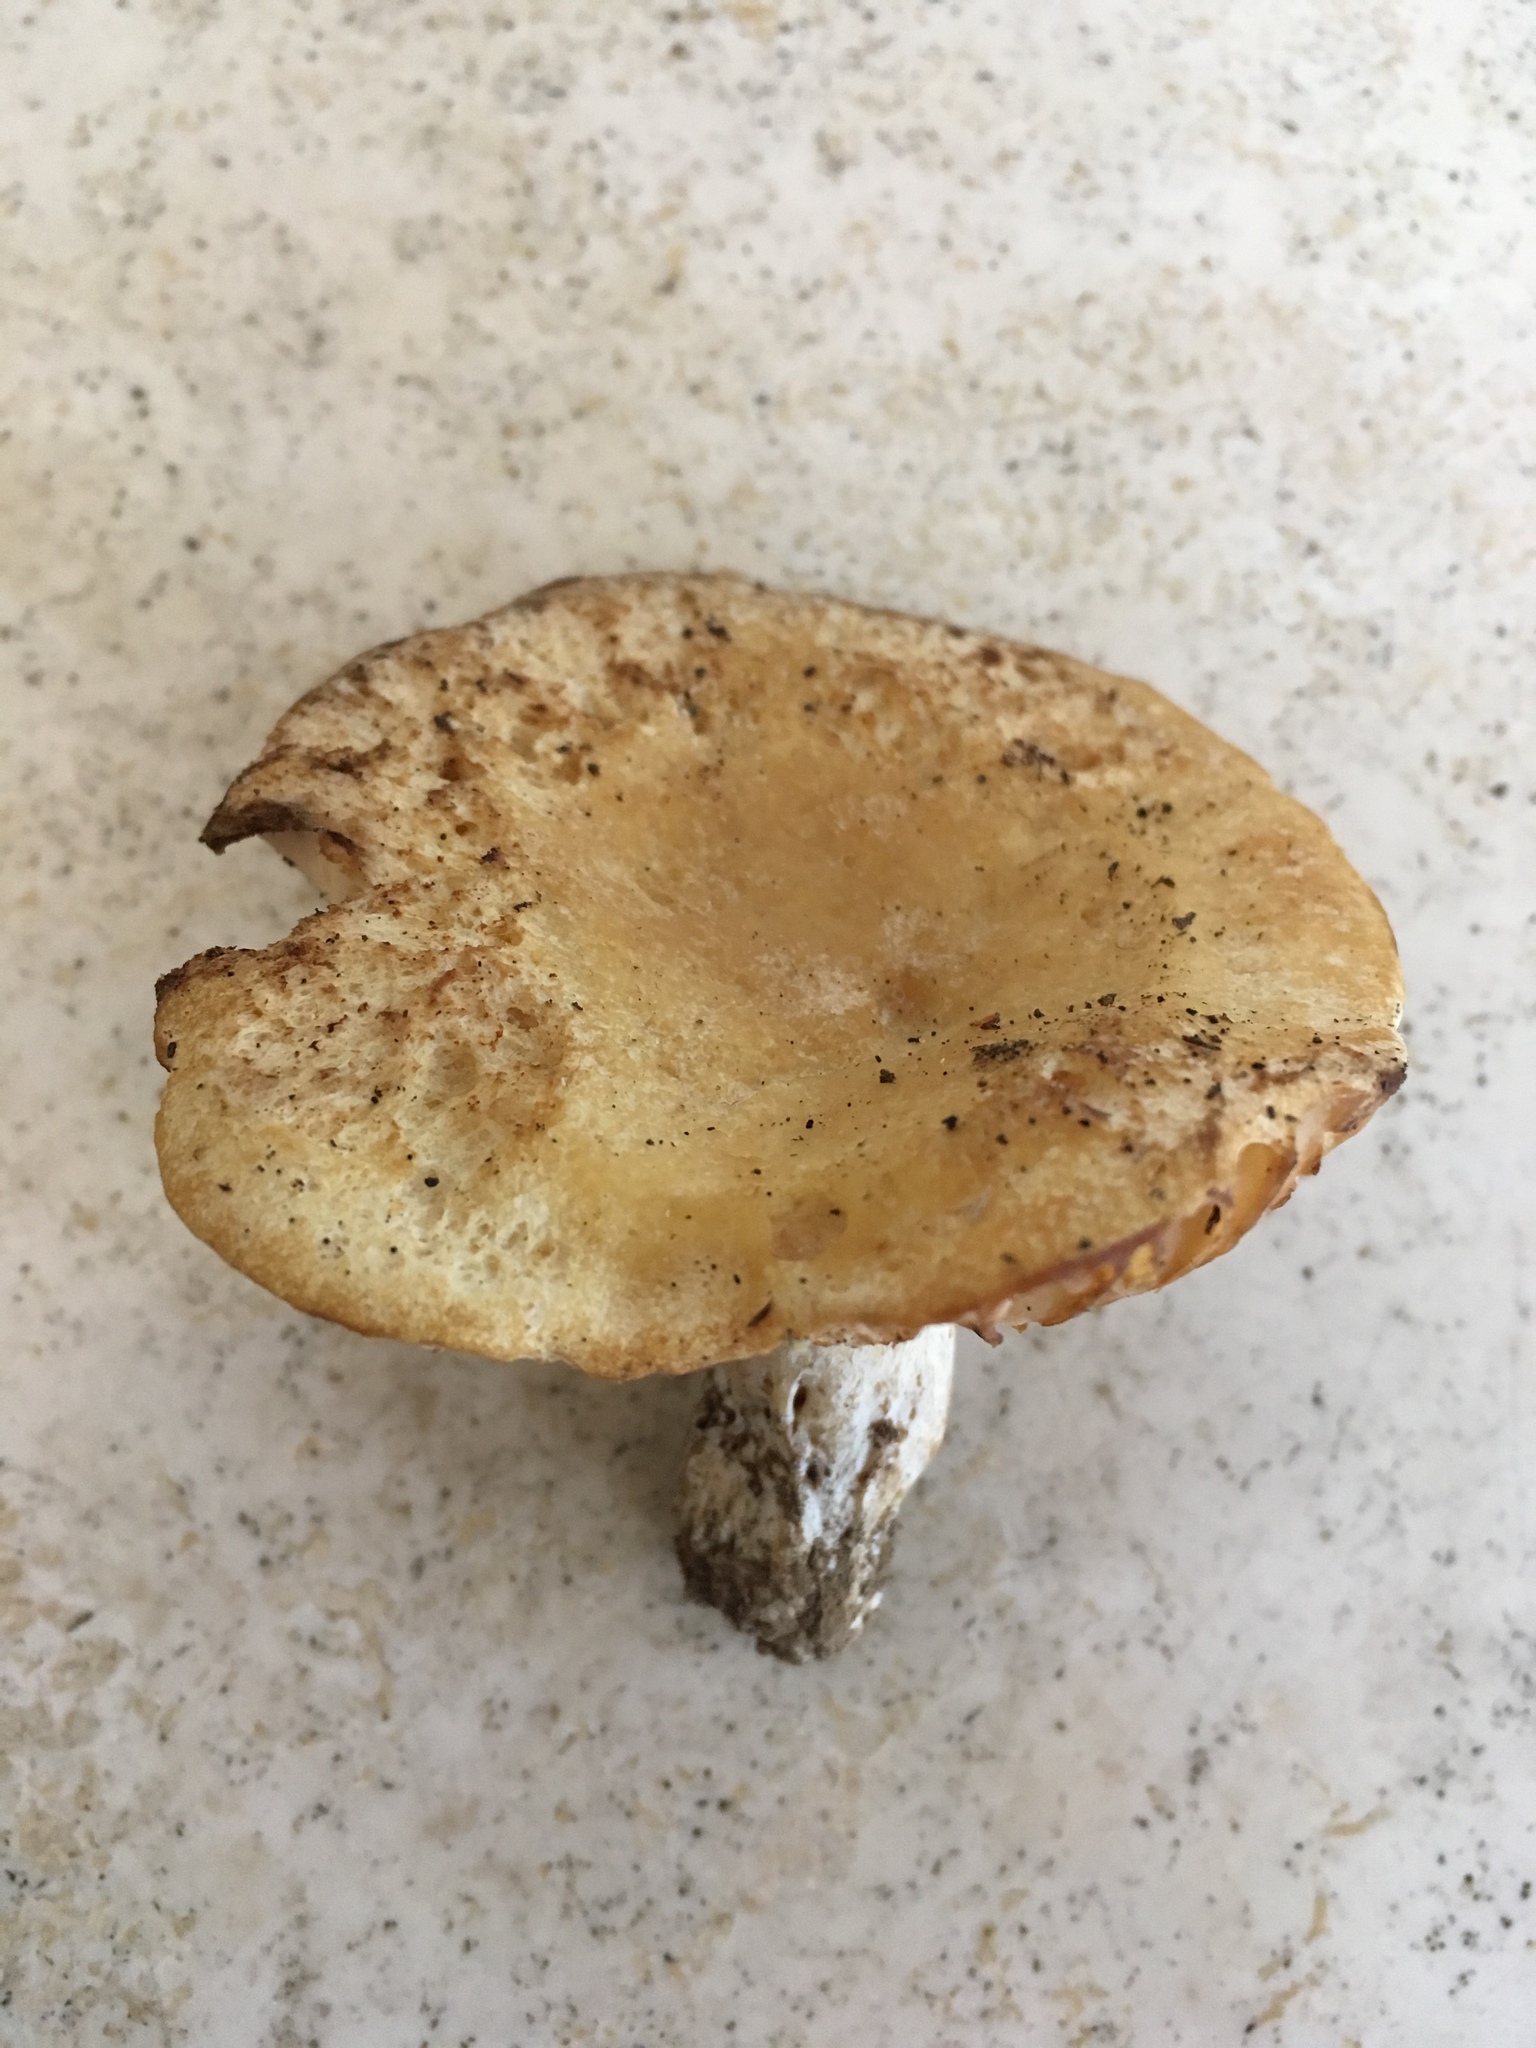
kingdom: Fungi
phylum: Basidiomycota
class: Agaricomycetes
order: Russulales
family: Russulaceae
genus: Russula
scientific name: Russula earlei
